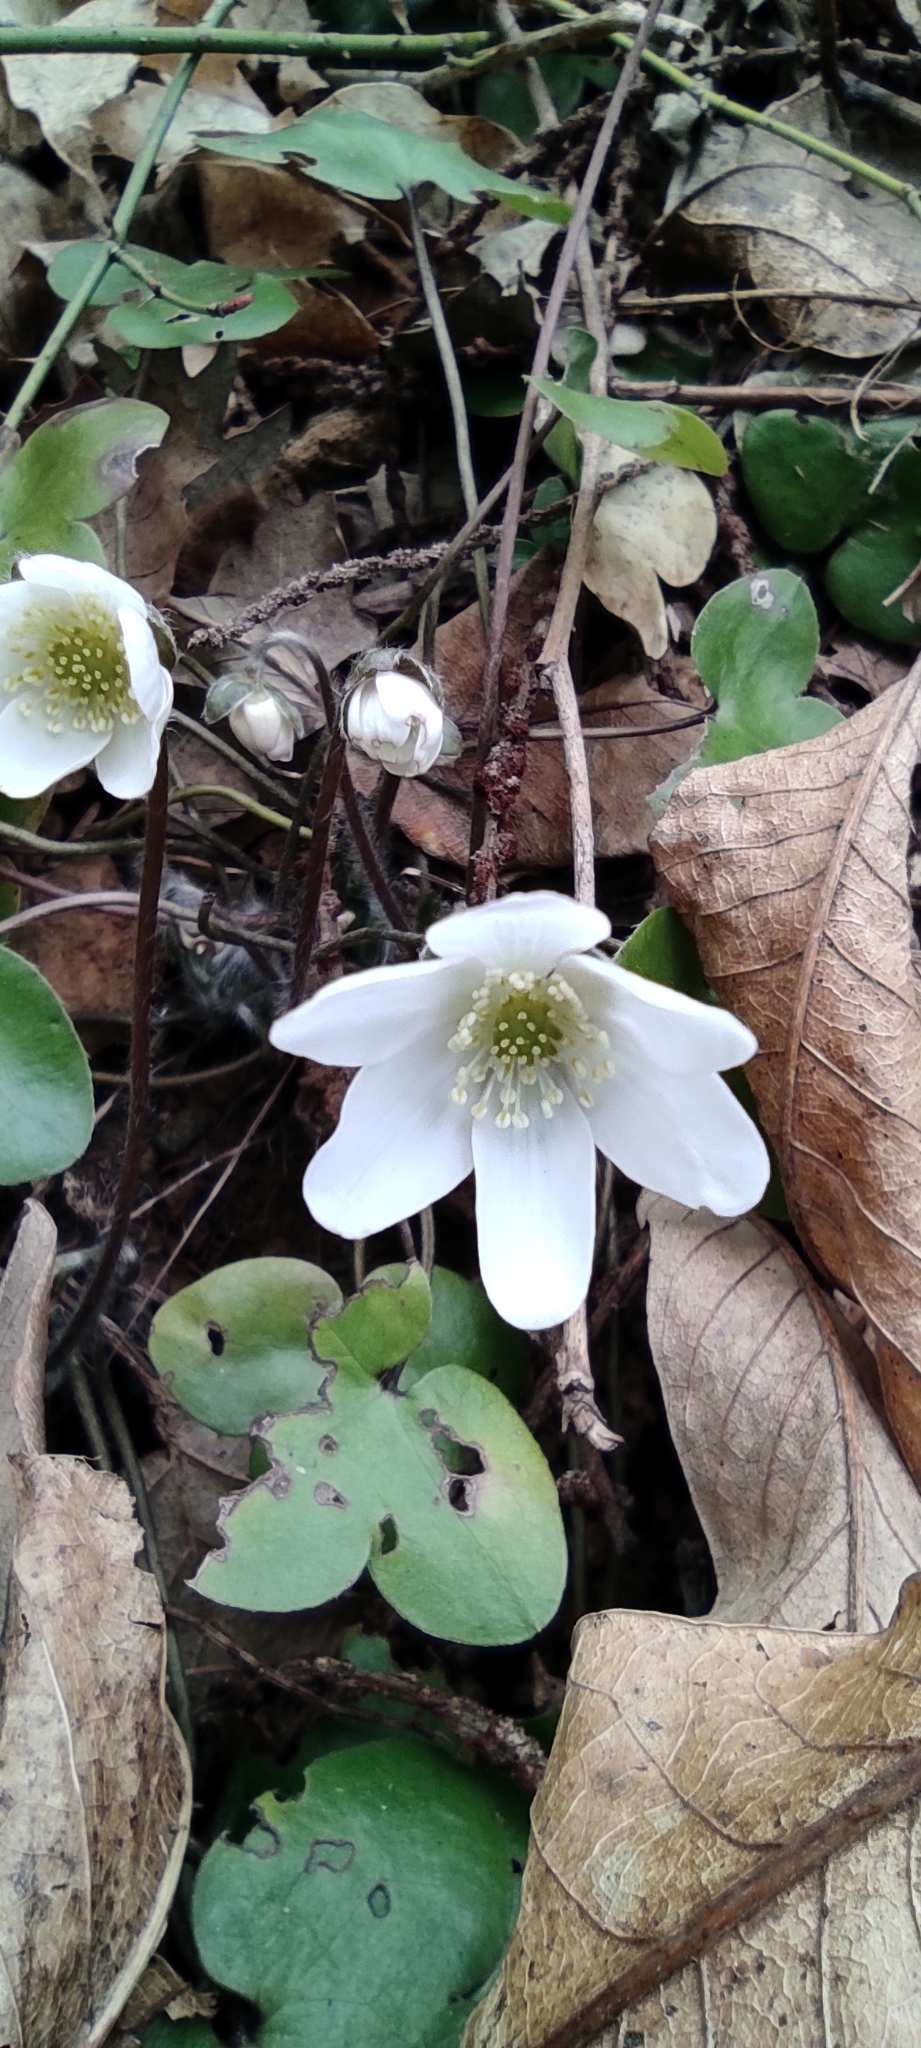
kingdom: Plantae
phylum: Tracheophyta
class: Magnoliopsida
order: Ranunculales
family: Ranunculaceae
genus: Hepatica
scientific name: Hepatica nobilis
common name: Liverleaf
